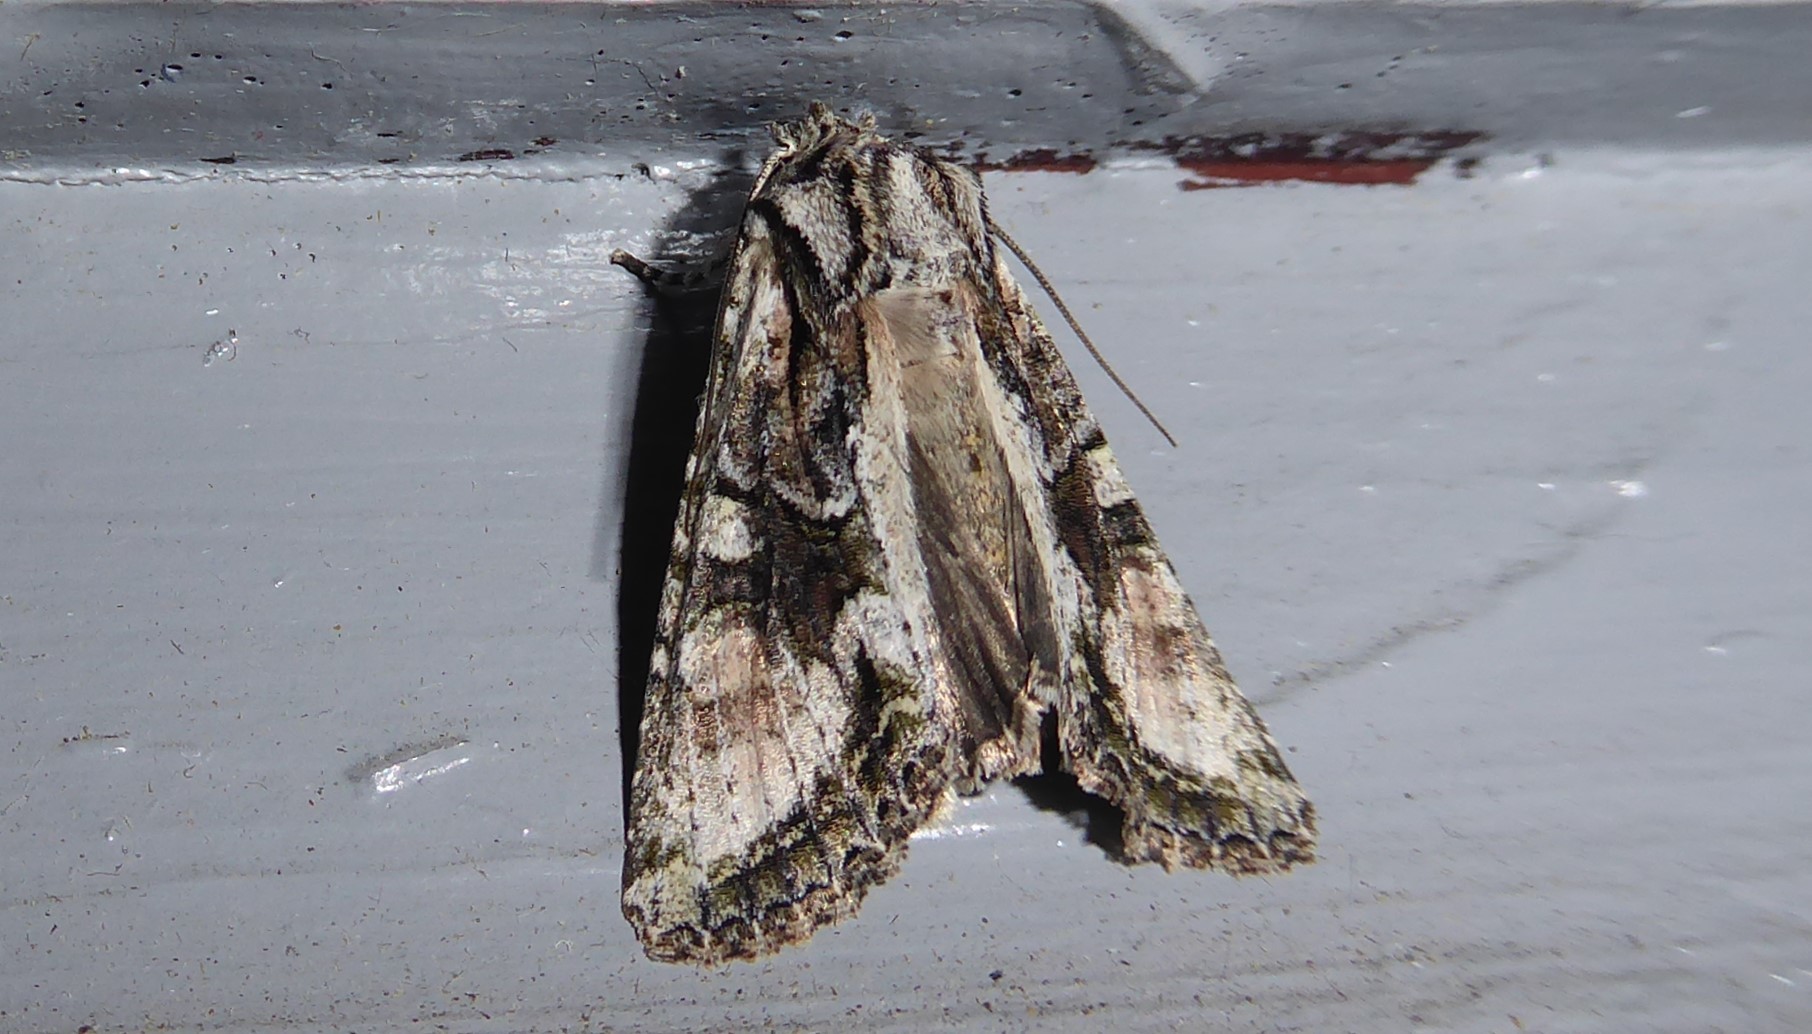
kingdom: Animalia
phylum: Arthropoda
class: Insecta
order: Lepidoptera
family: Noctuidae
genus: Ichneutica
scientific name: Ichneutica mutans
